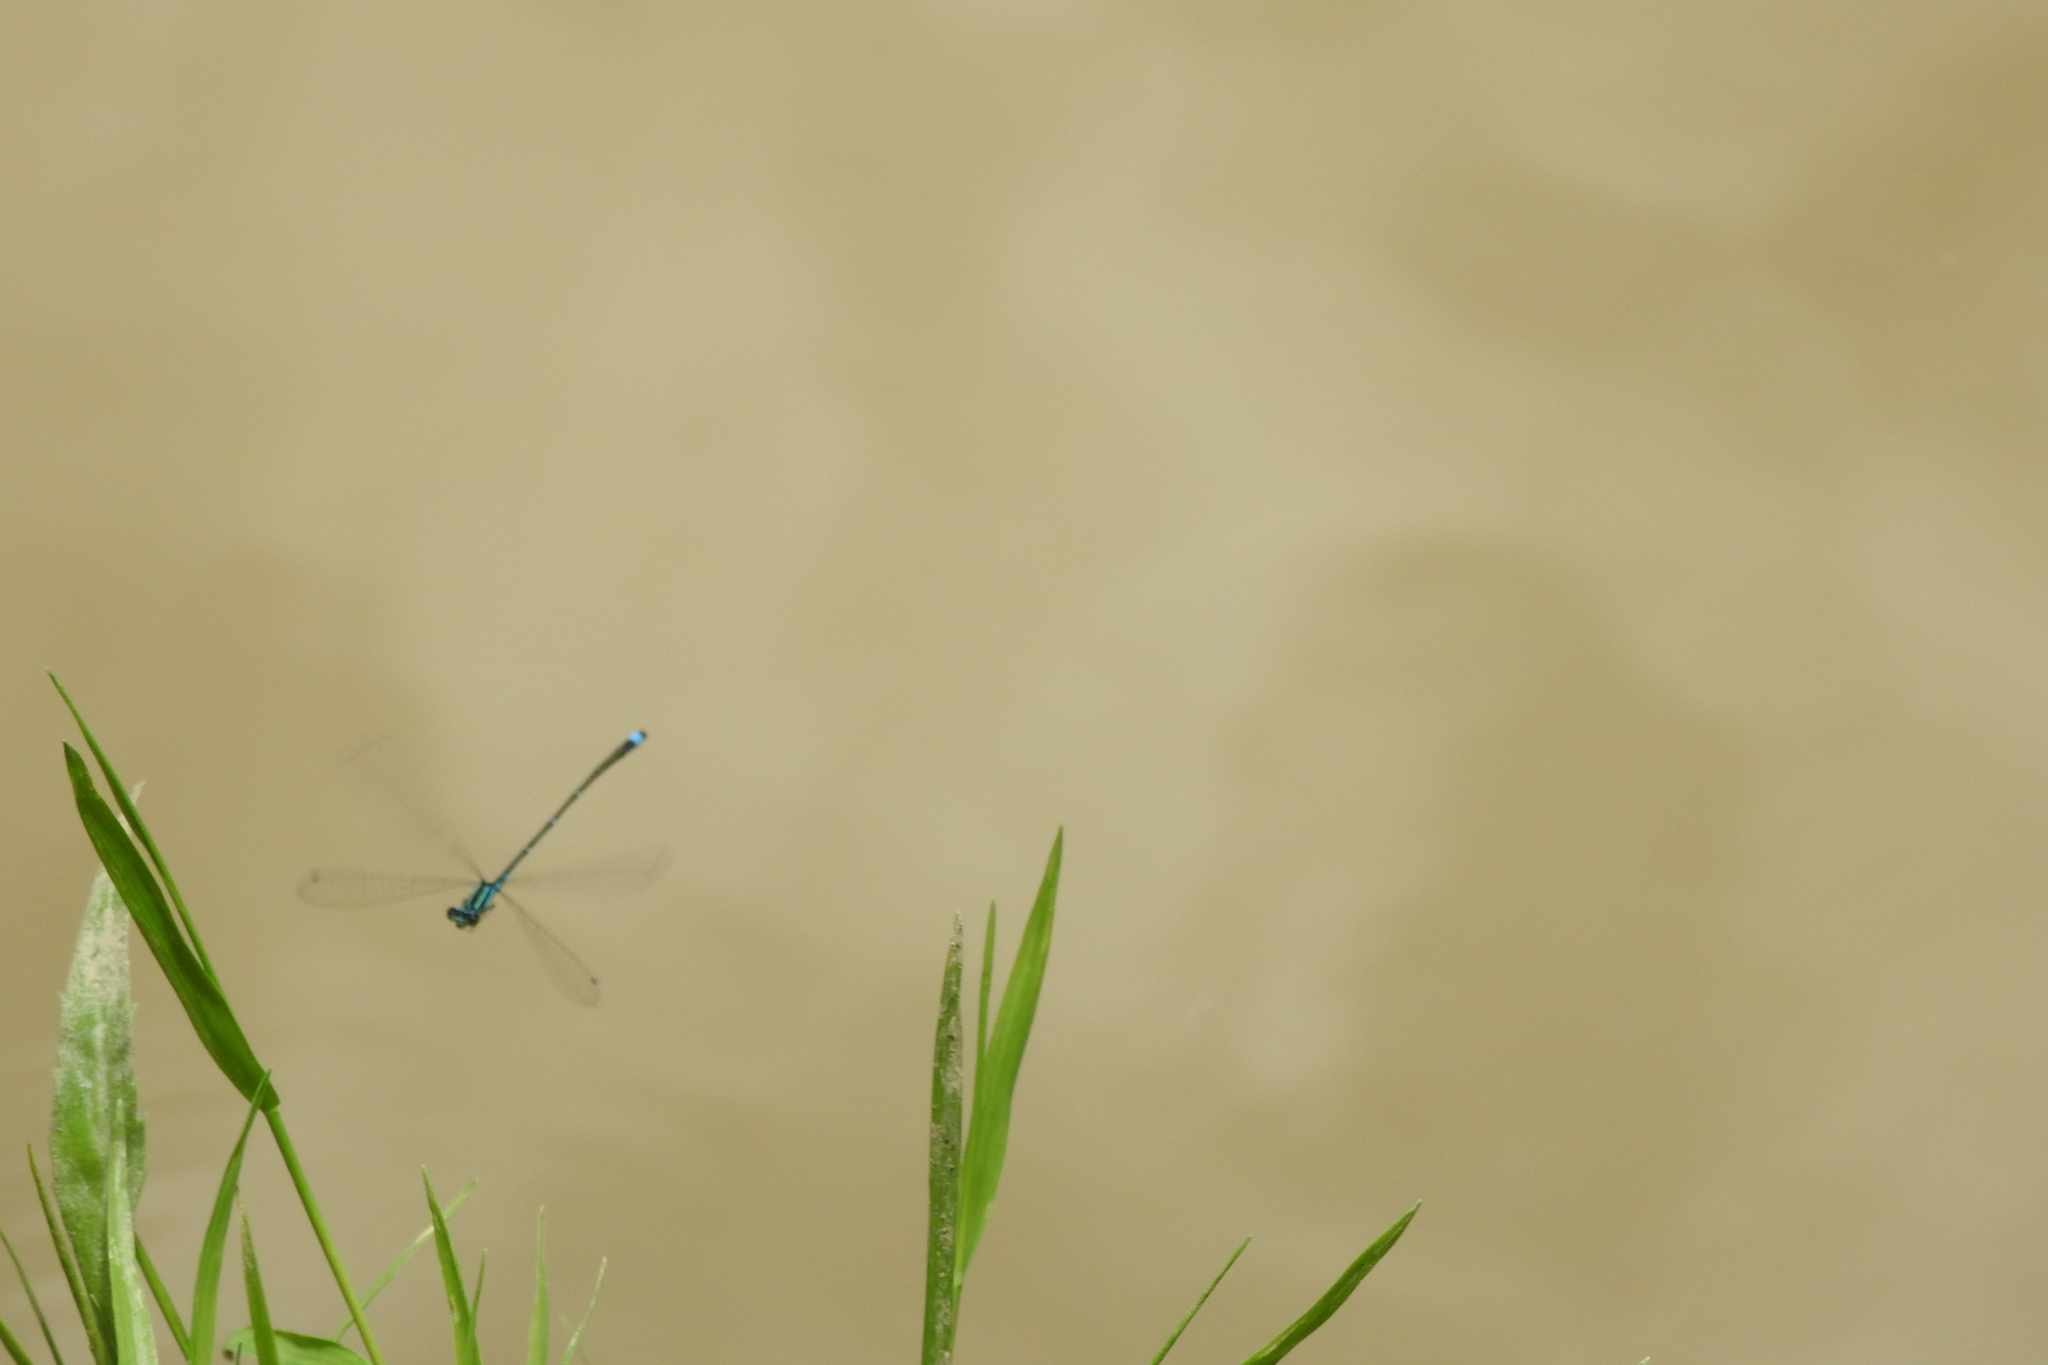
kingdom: Animalia
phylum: Arthropoda
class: Insecta
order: Odonata
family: Coenagrionidae
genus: Enallagma
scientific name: Enallagma exsulans
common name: Stream bluet
